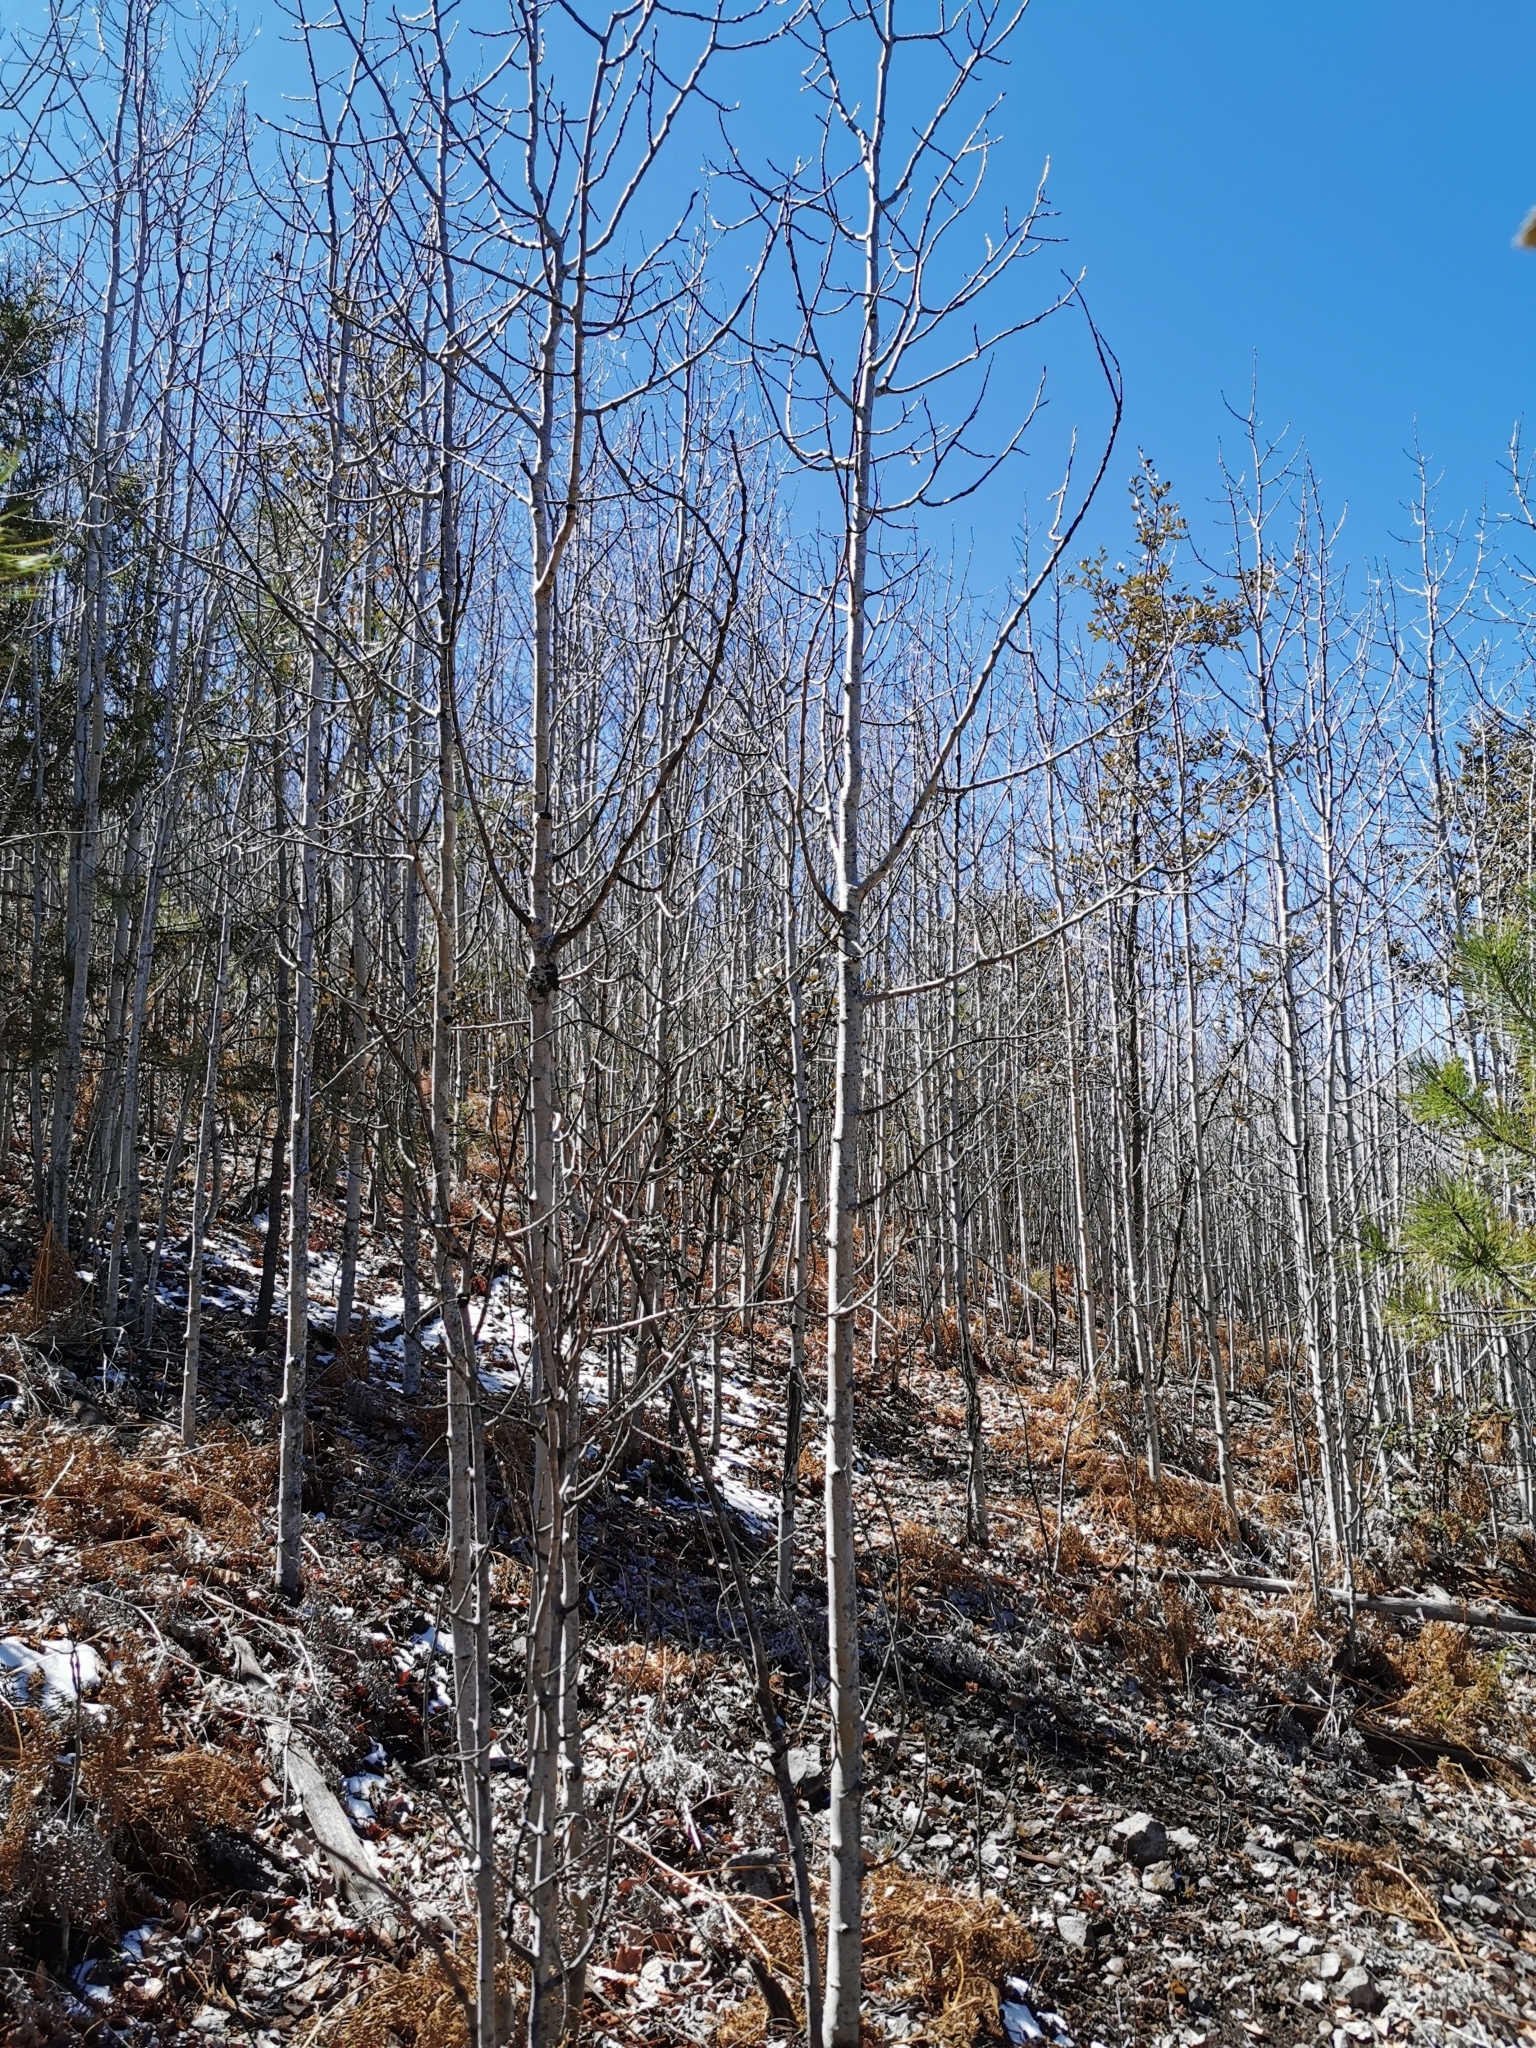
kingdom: Plantae
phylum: Tracheophyta
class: Magnoliopsida
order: Malpighiales
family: Salicaceae
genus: Populus
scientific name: Populus tremuloides
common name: Quaking aspen
